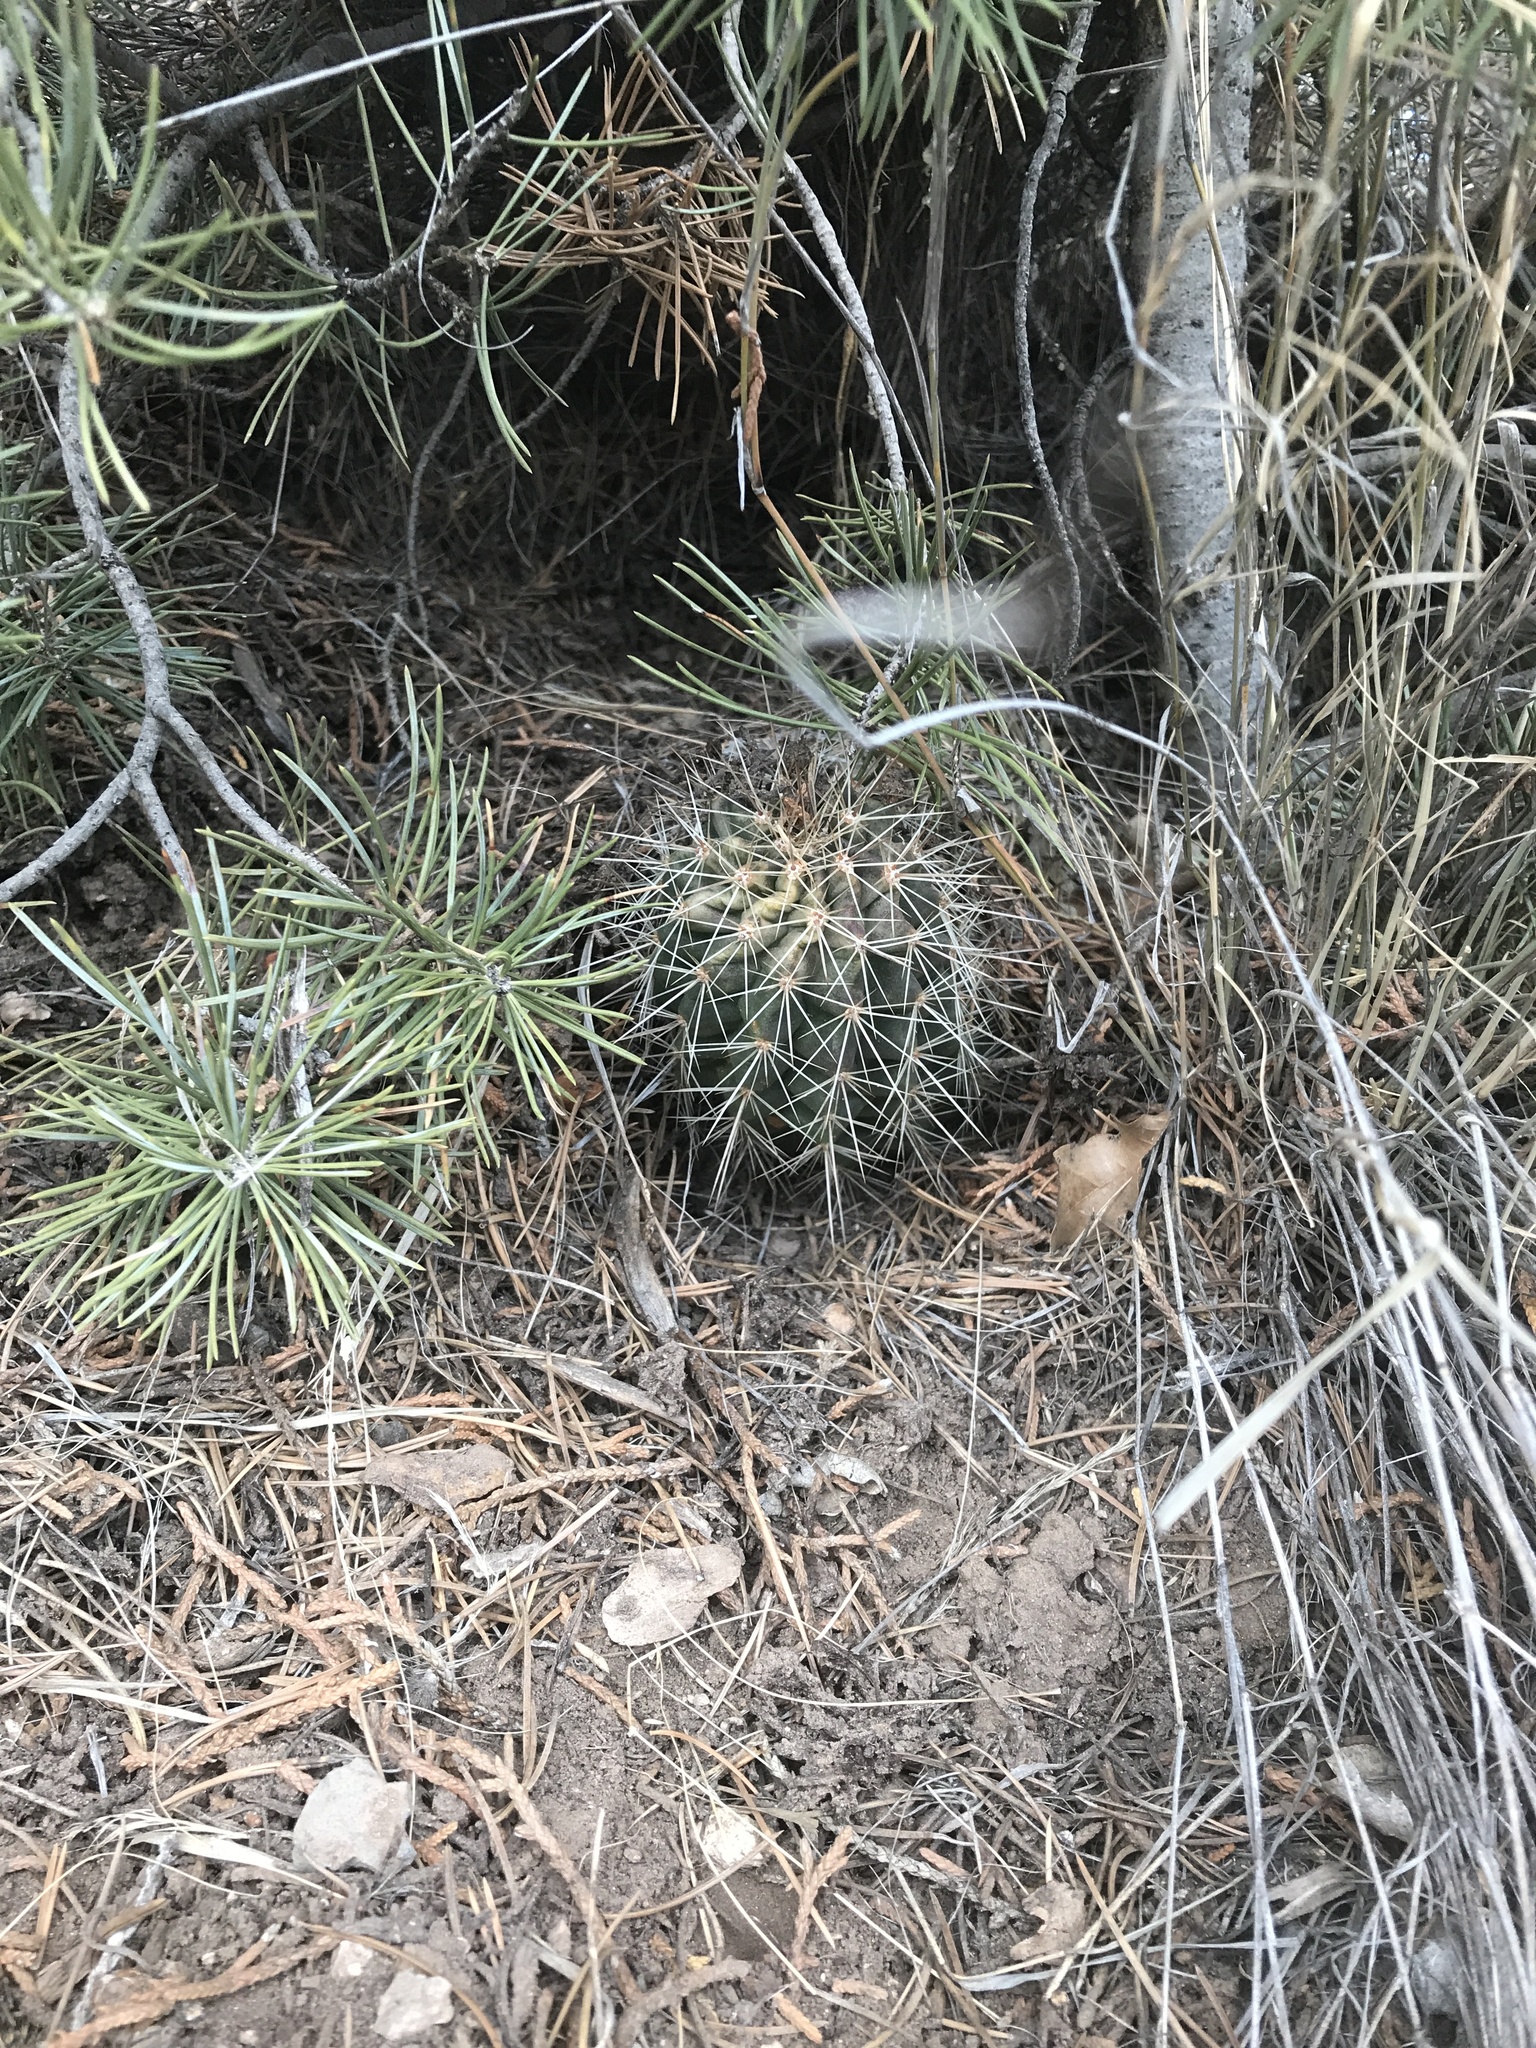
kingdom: Plantae
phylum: Tracheophyta
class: Magnoliopsida
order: Caryophyllales
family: Cactaceae
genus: Echinocereus
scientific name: Echinocereus coccineus
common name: Scarlet hedgehog cactus
